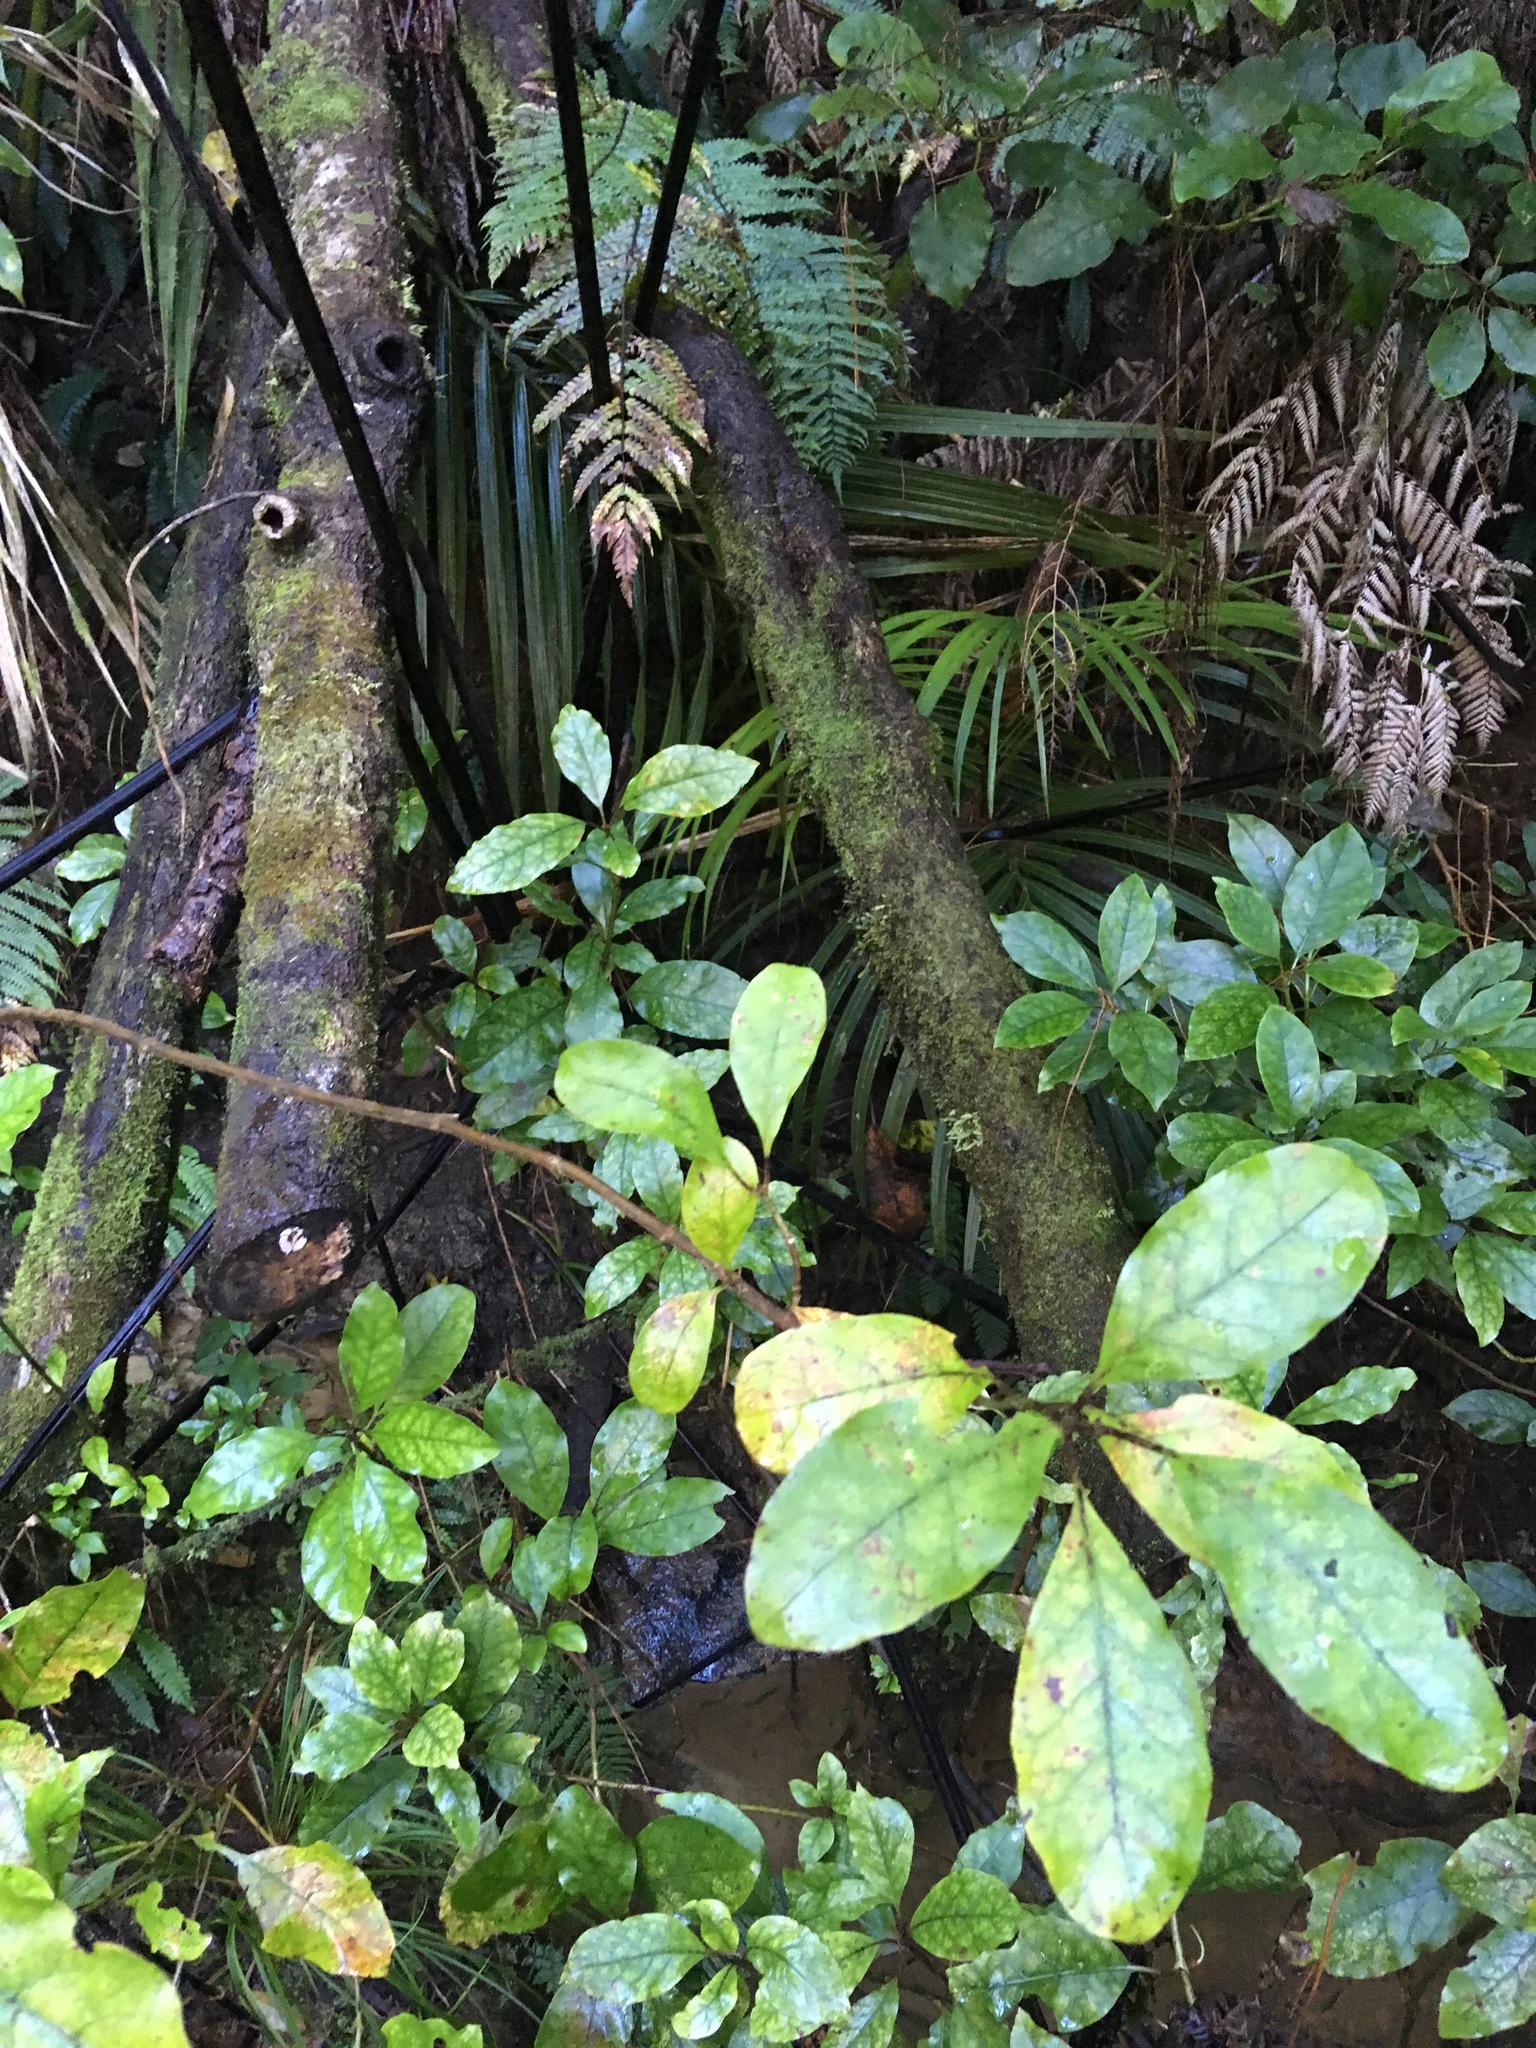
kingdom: Plantae
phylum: Tracheophyta
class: Magnoliopsida
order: Gentianales
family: Rubiaceae
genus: Coprosma
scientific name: Coprosma autumnalis
